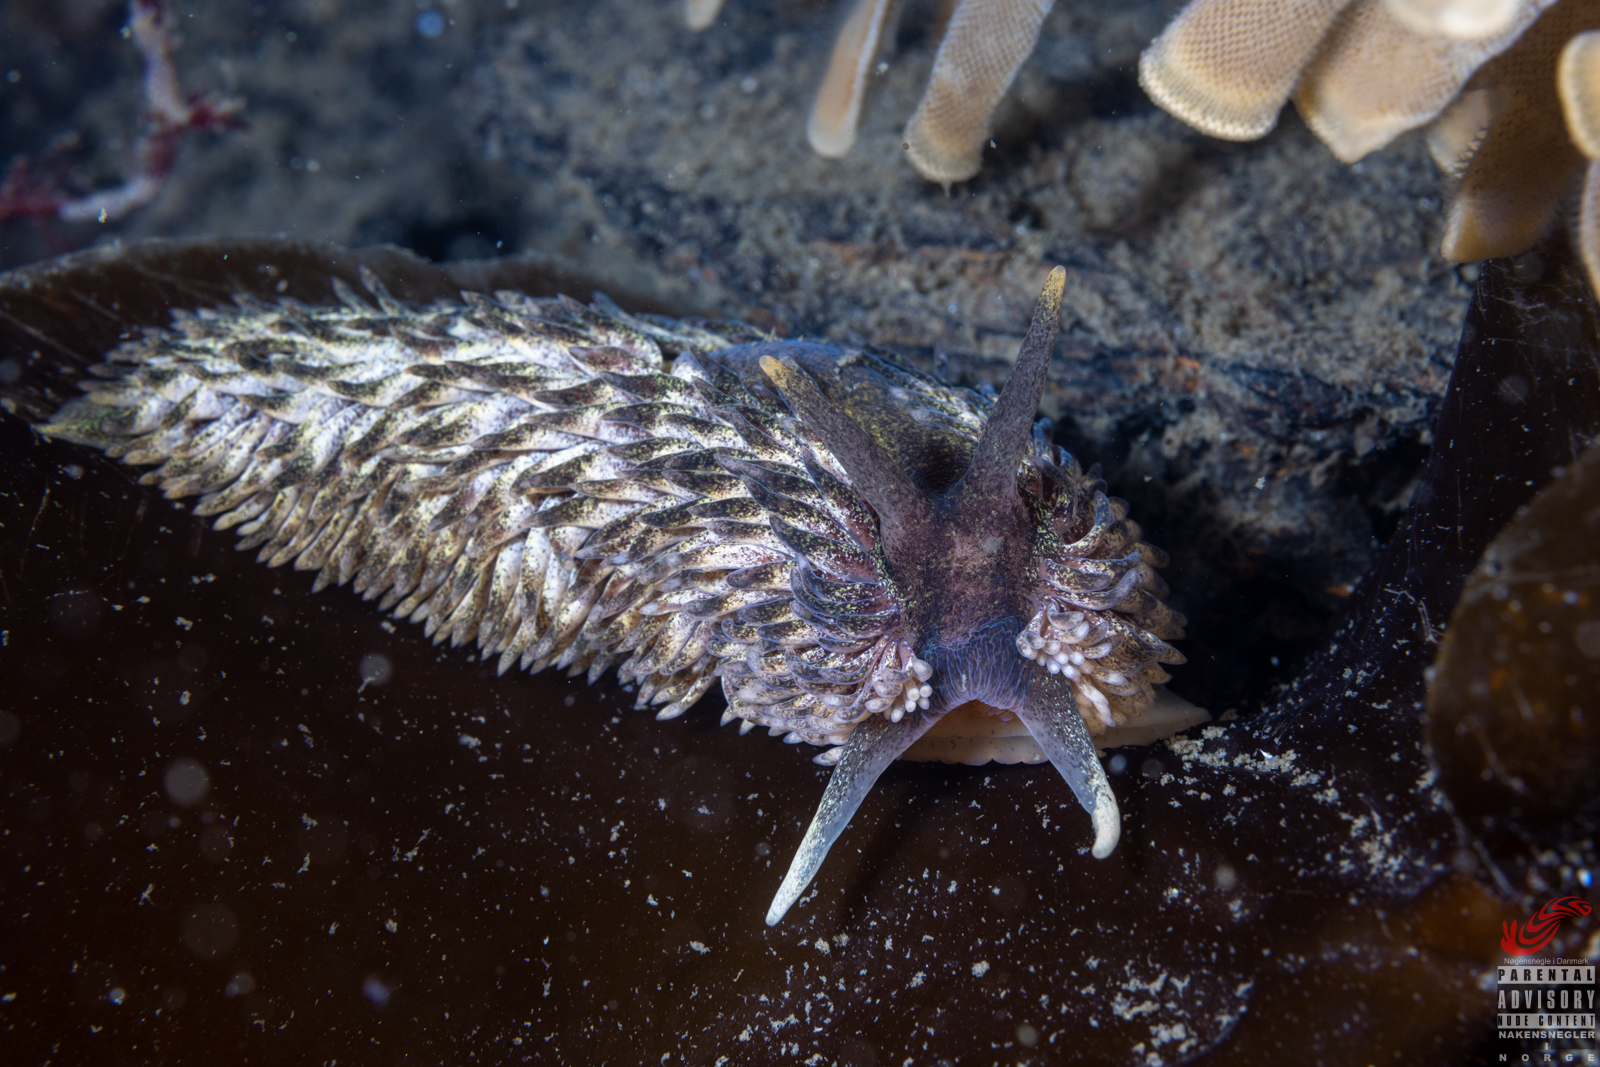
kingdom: Animalia
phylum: Mollusca
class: Gastropoda
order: Nudibranchia
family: Aeolidiidae
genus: Aeolidia
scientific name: Aeolidia papillosa
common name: Common grey sea slug
